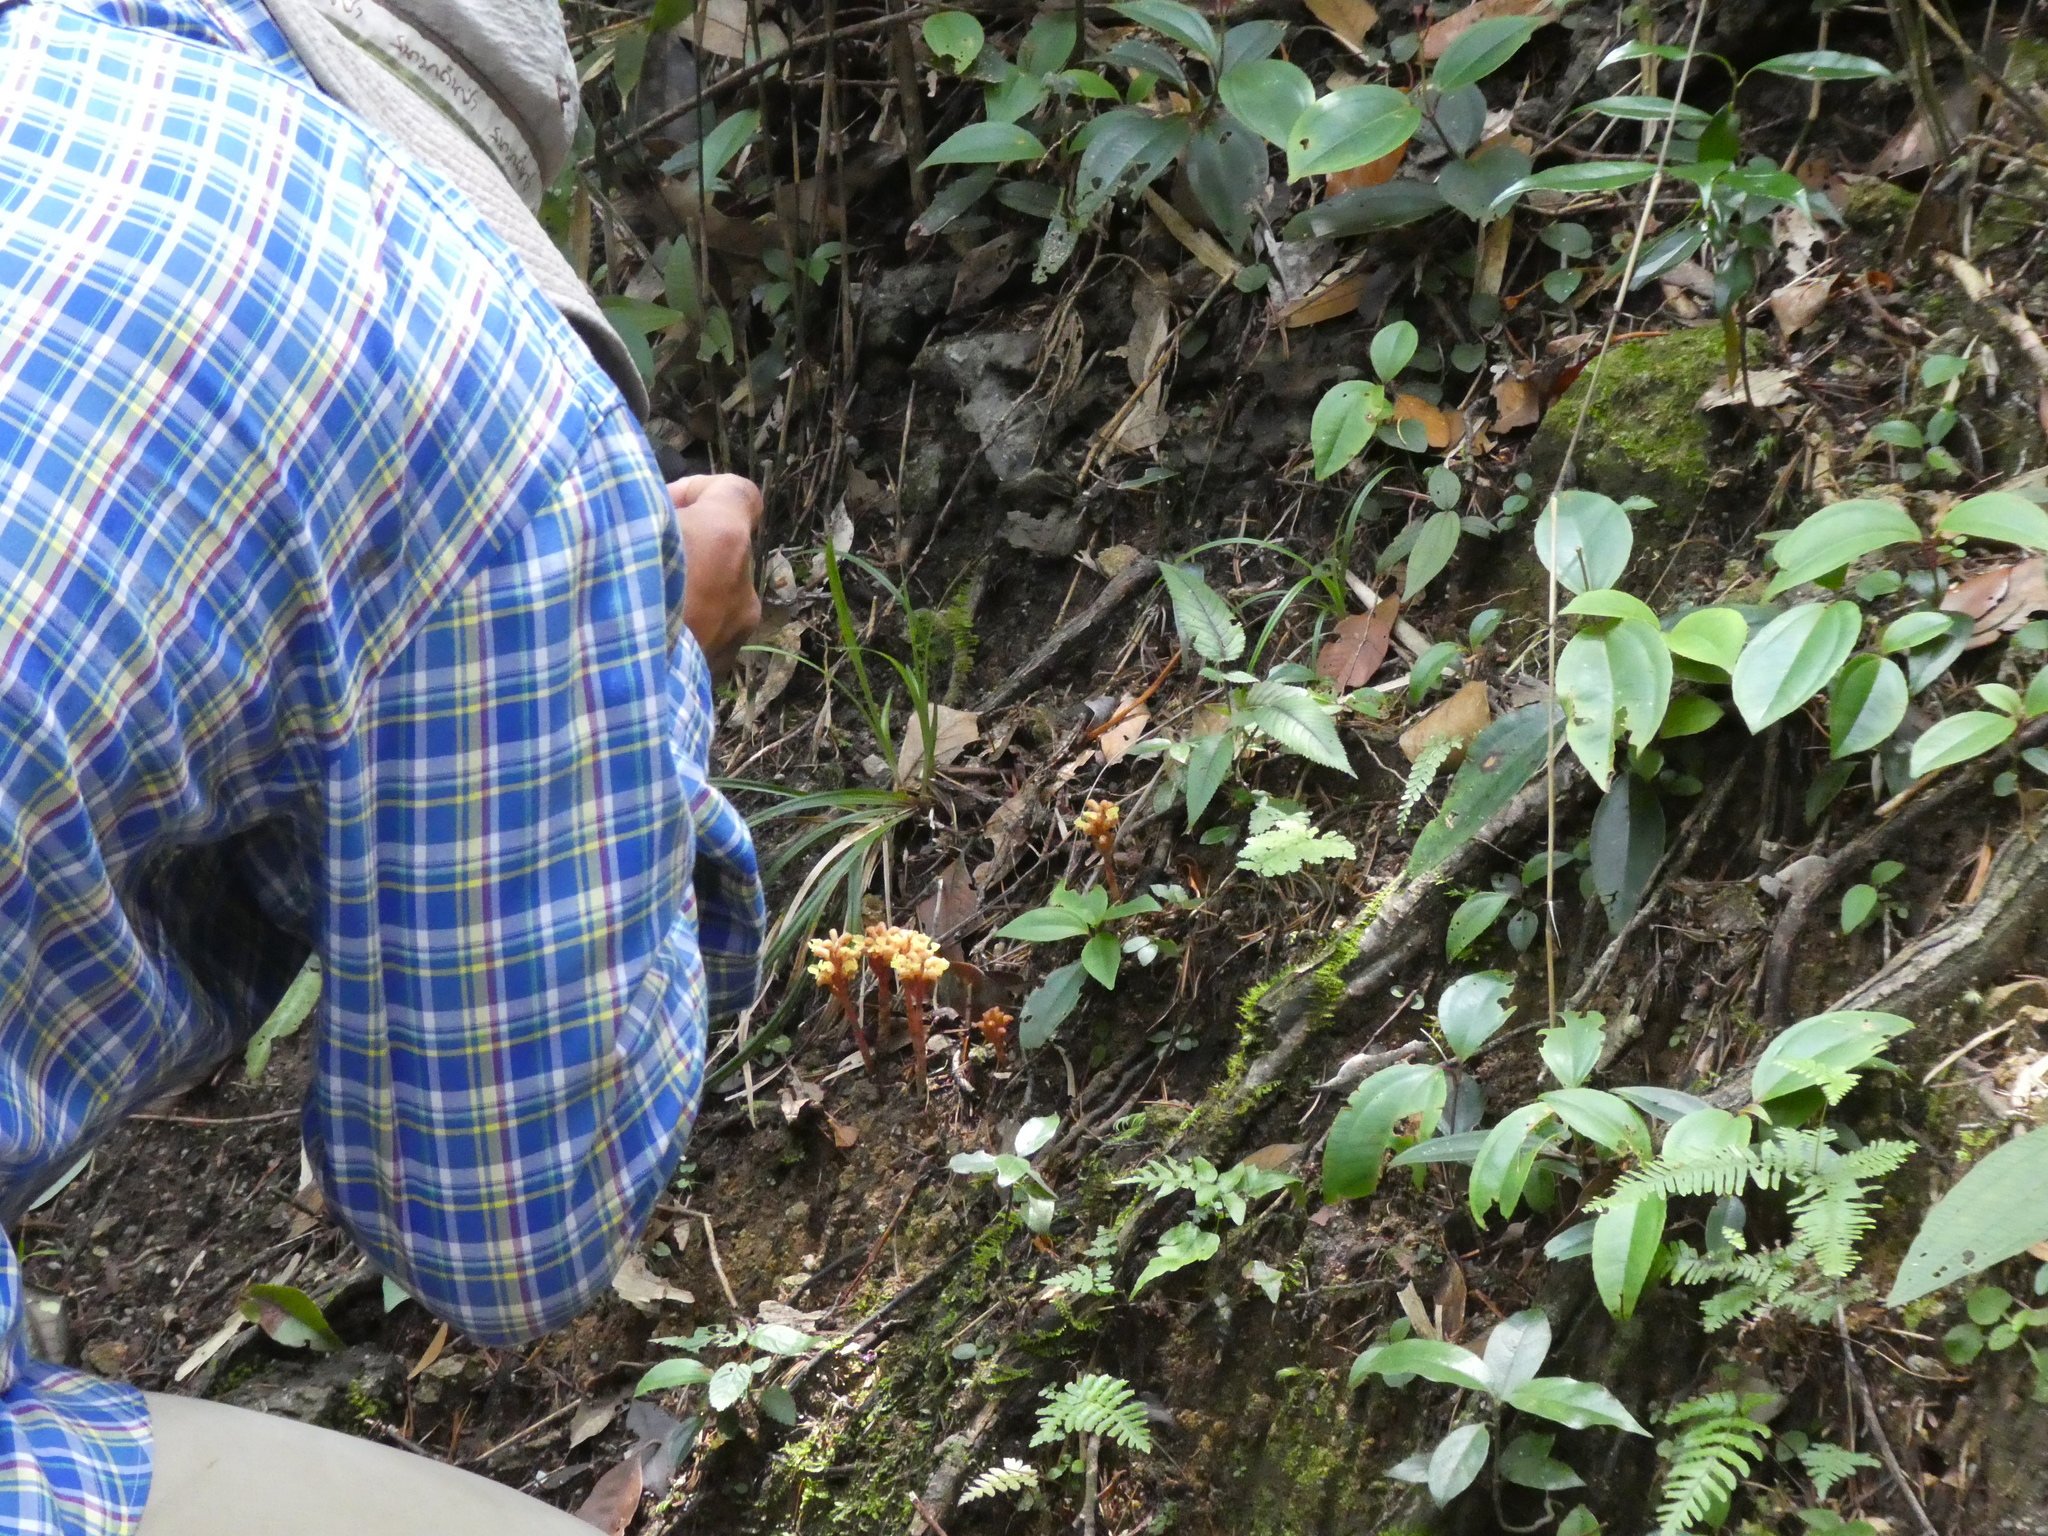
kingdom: Plantae
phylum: Tracheophyta
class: Liliopsida
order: Asparagales
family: Orchidaceae
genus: Odontochilus
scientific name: Odontochilus guangdongensis
